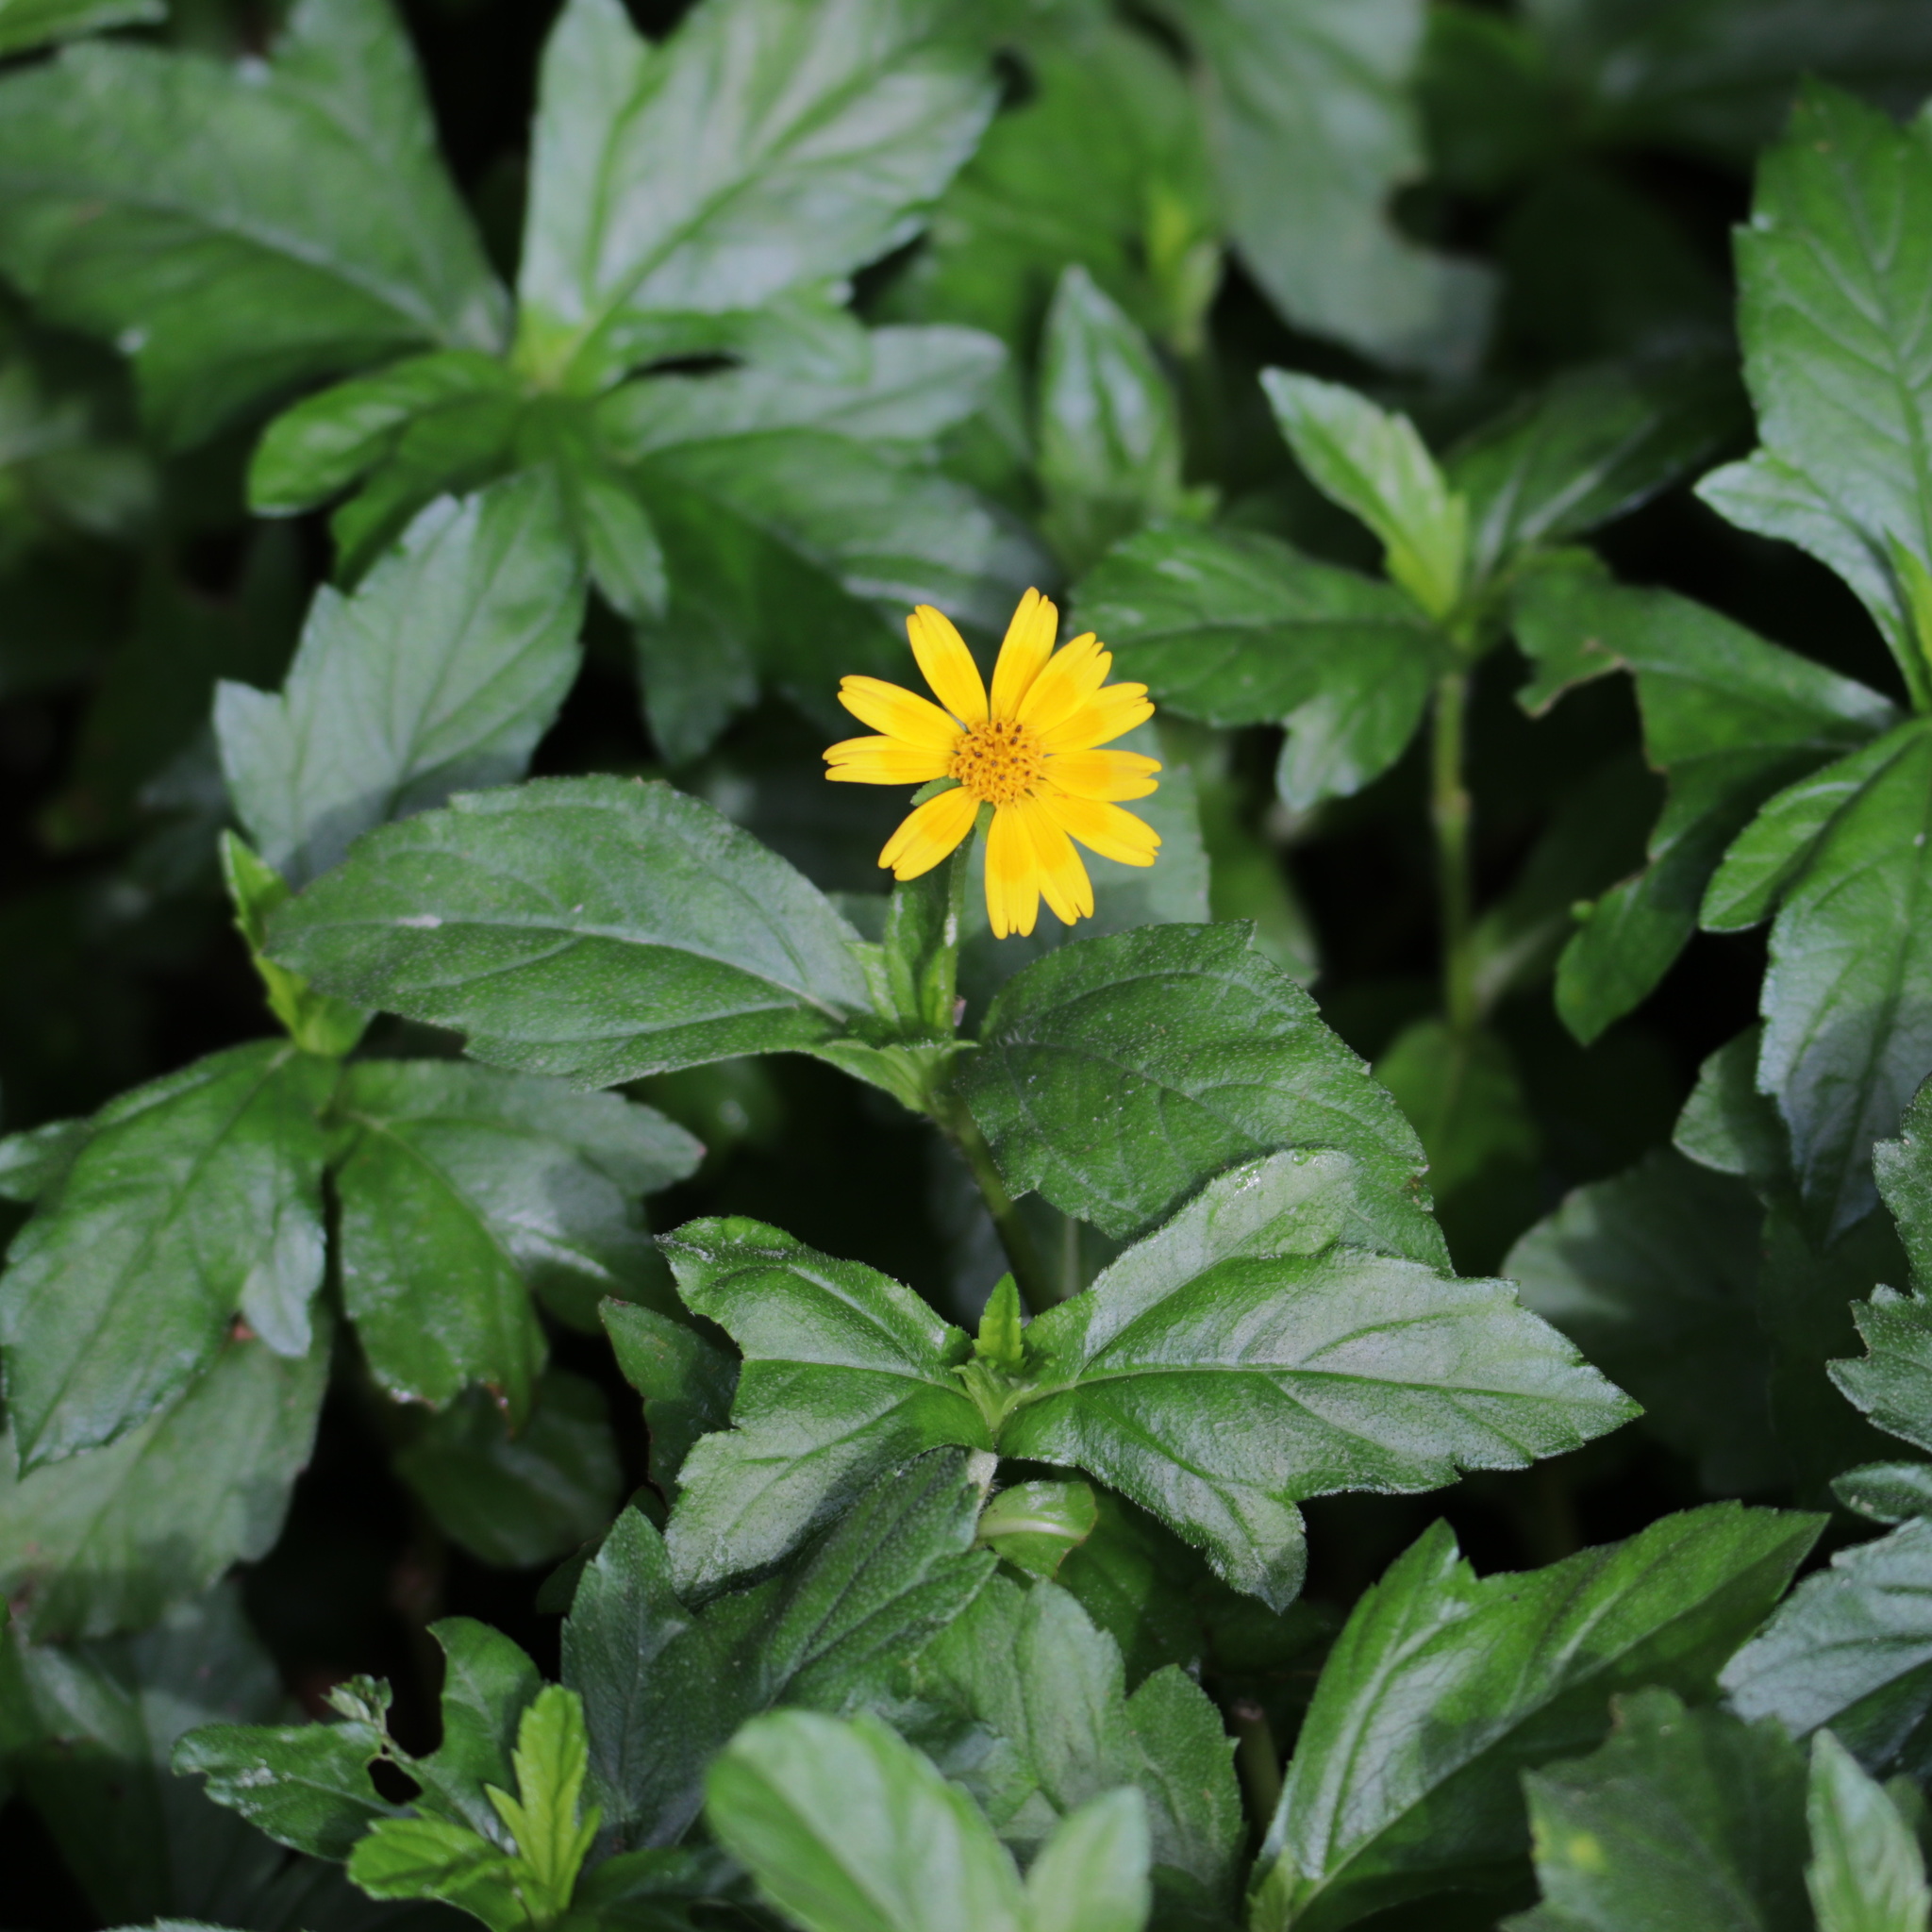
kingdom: Plantae
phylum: Tracheophyta
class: Magnoliopsida
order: Asterales
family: Asteraceae
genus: Sphagneticola
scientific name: Sphagneticola trilobata
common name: Bay biscayne creeping-oxeye
